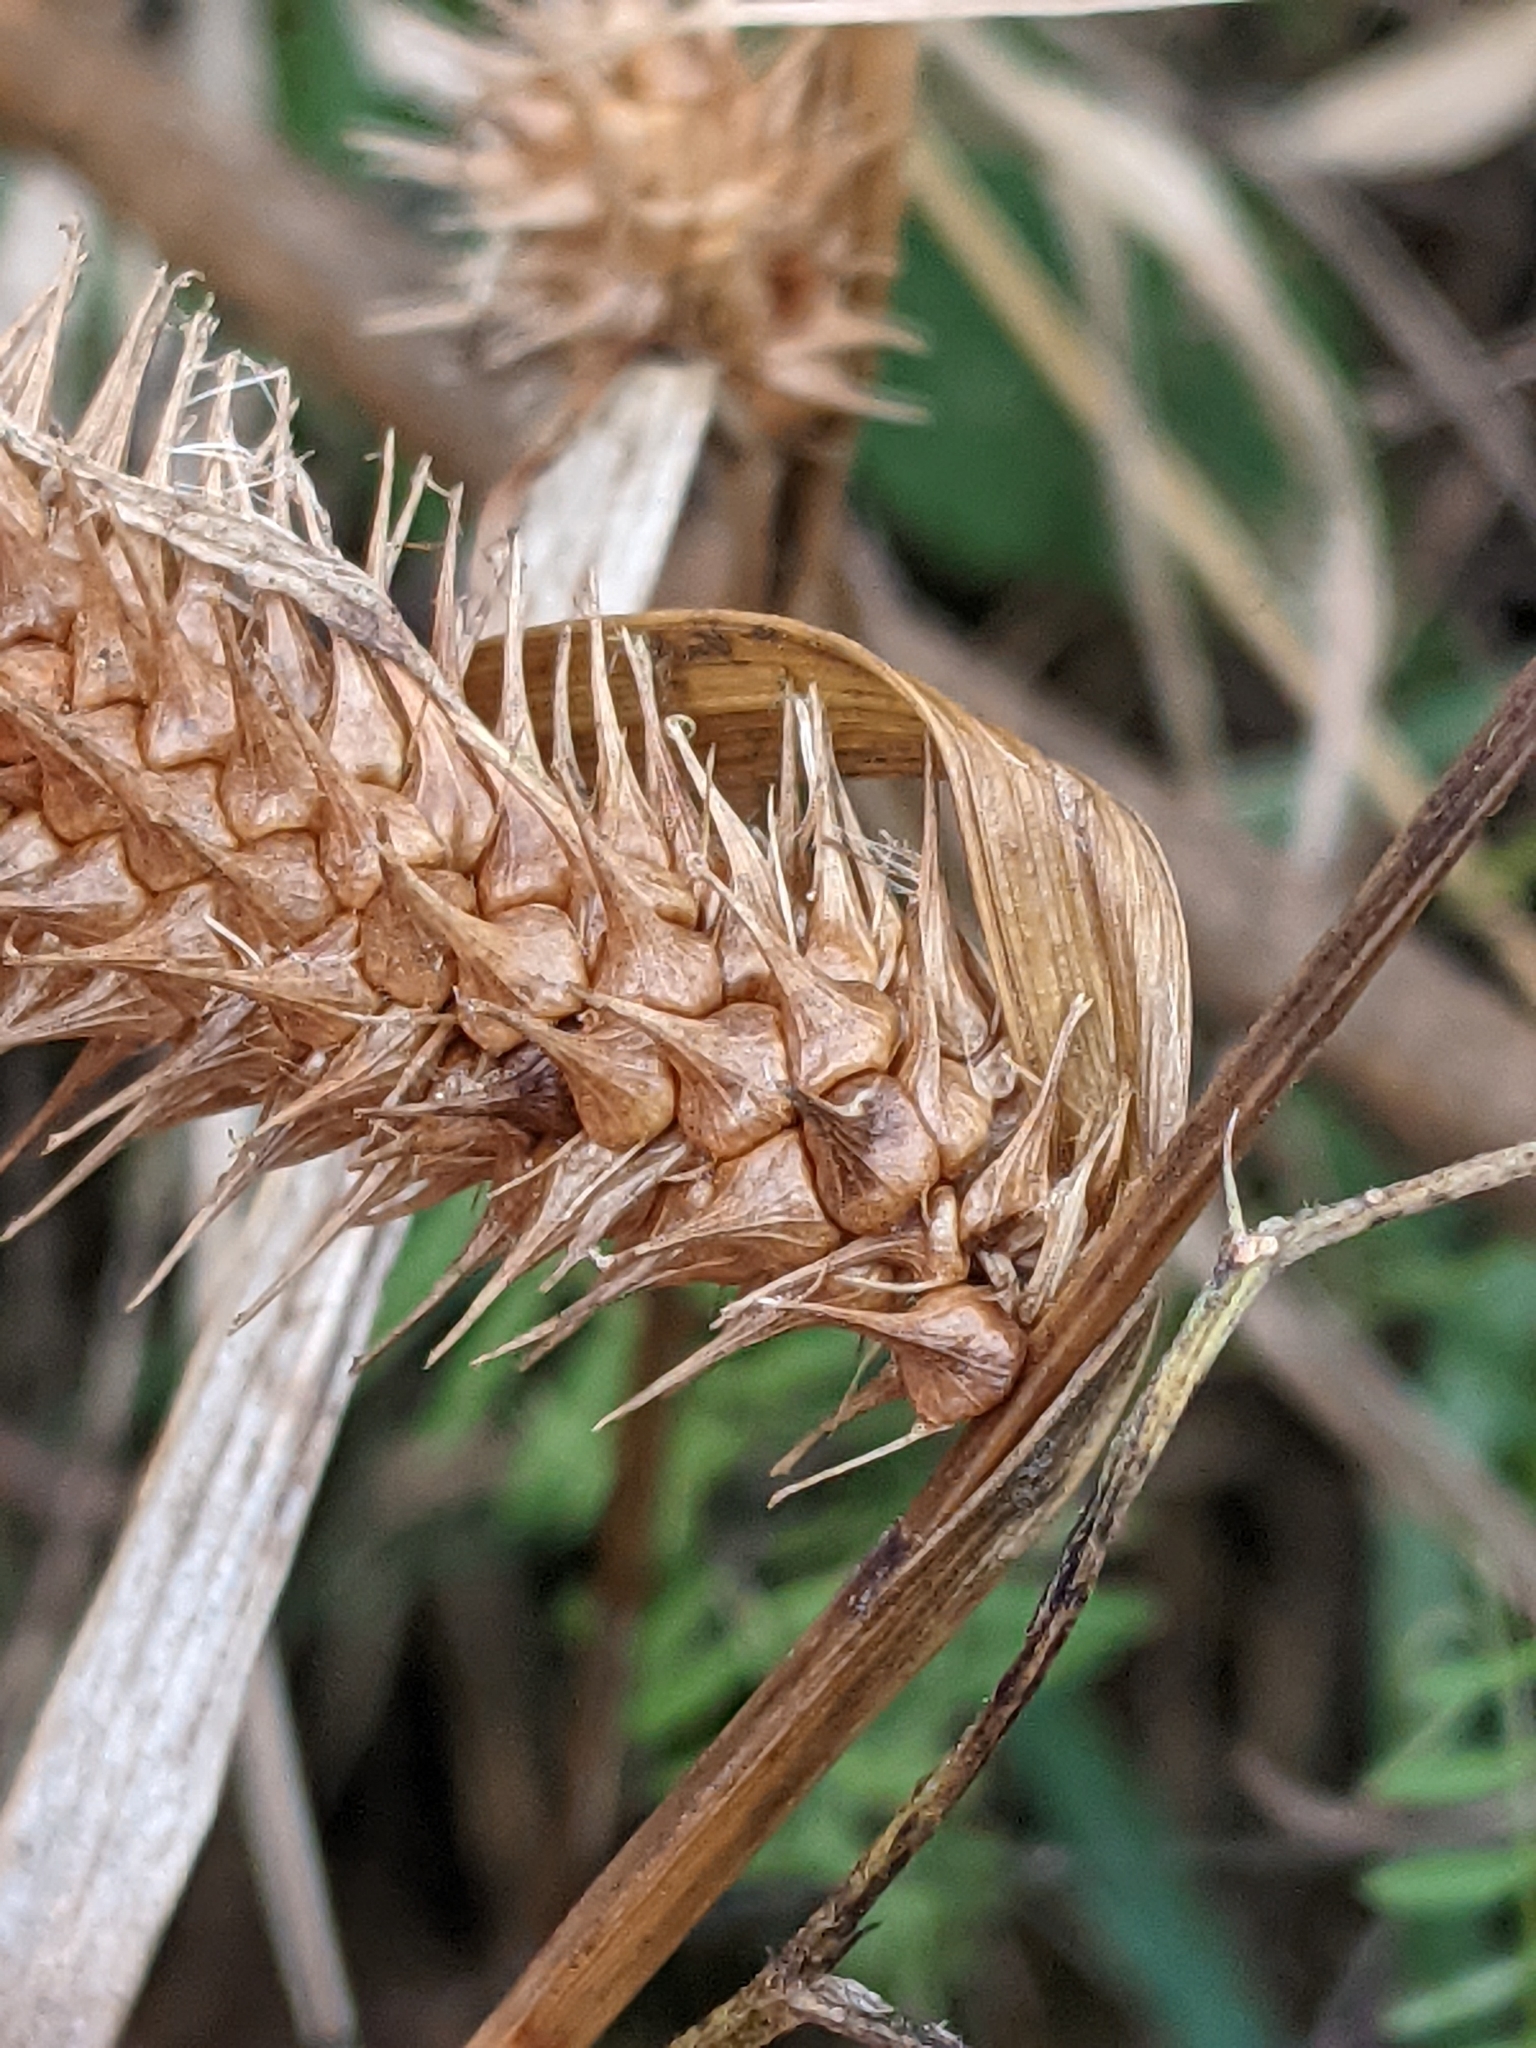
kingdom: Plantae
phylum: Tracheophyta
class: Liliopsida
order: Poales
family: Cyperaceae
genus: Carex
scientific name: Carex lurida
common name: Sallow sedge
